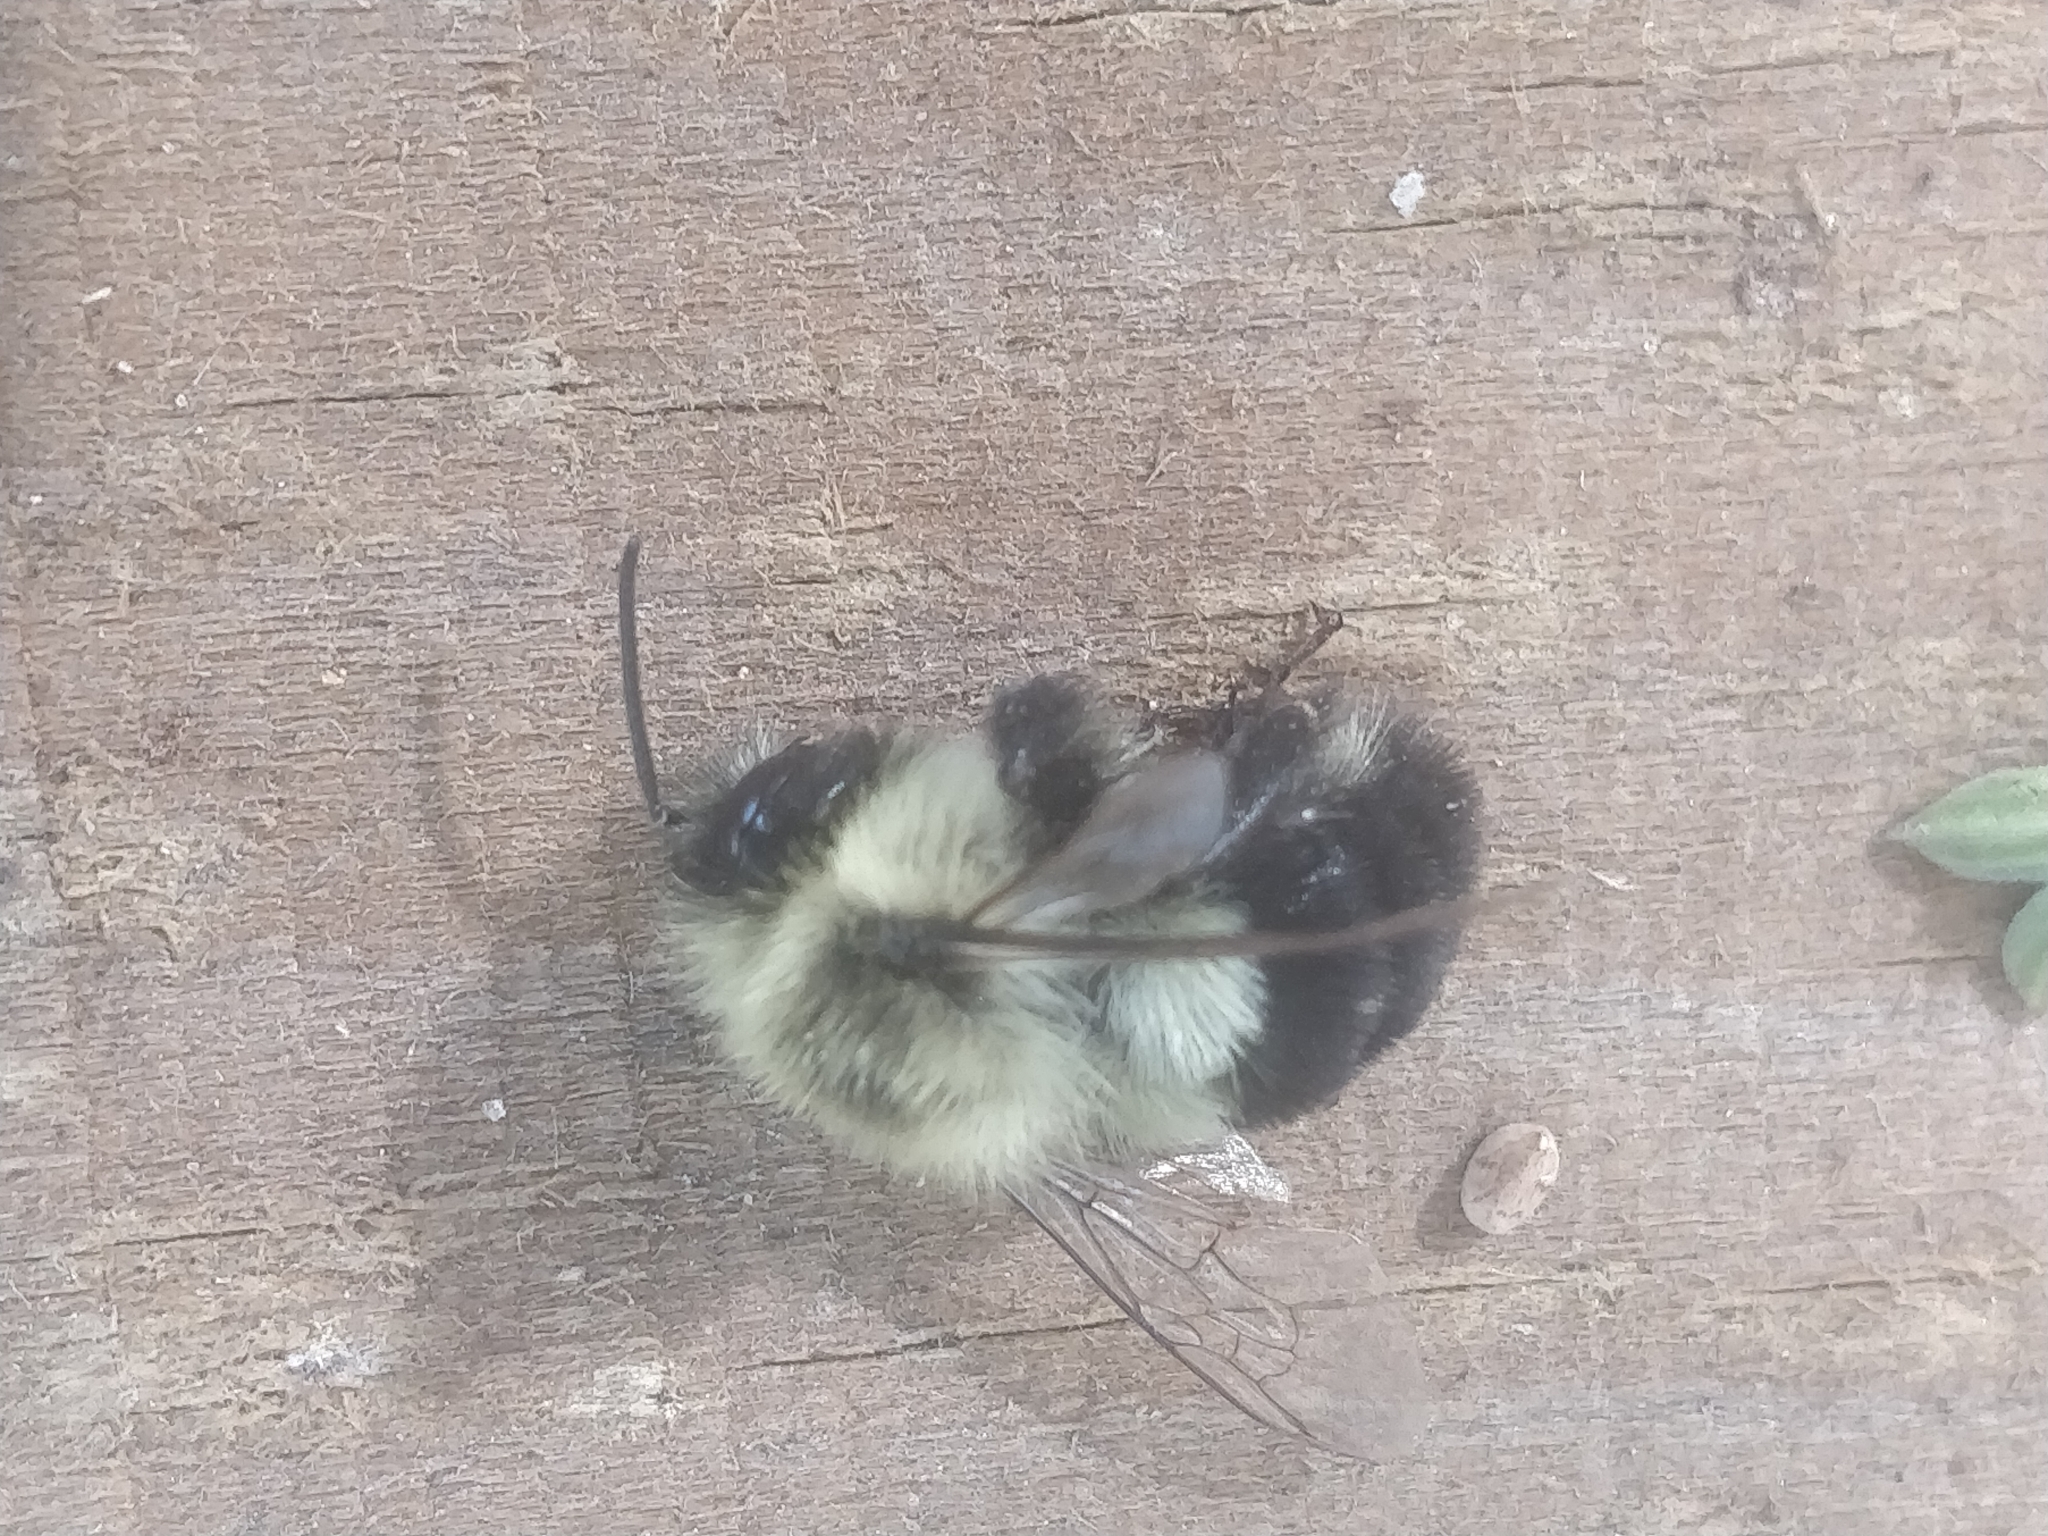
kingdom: Animalia
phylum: Arthropoda
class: Insecta
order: Hymenoptera
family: Apidae
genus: Bombus
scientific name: Bombus impatiens
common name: Common eastern bumble bee
